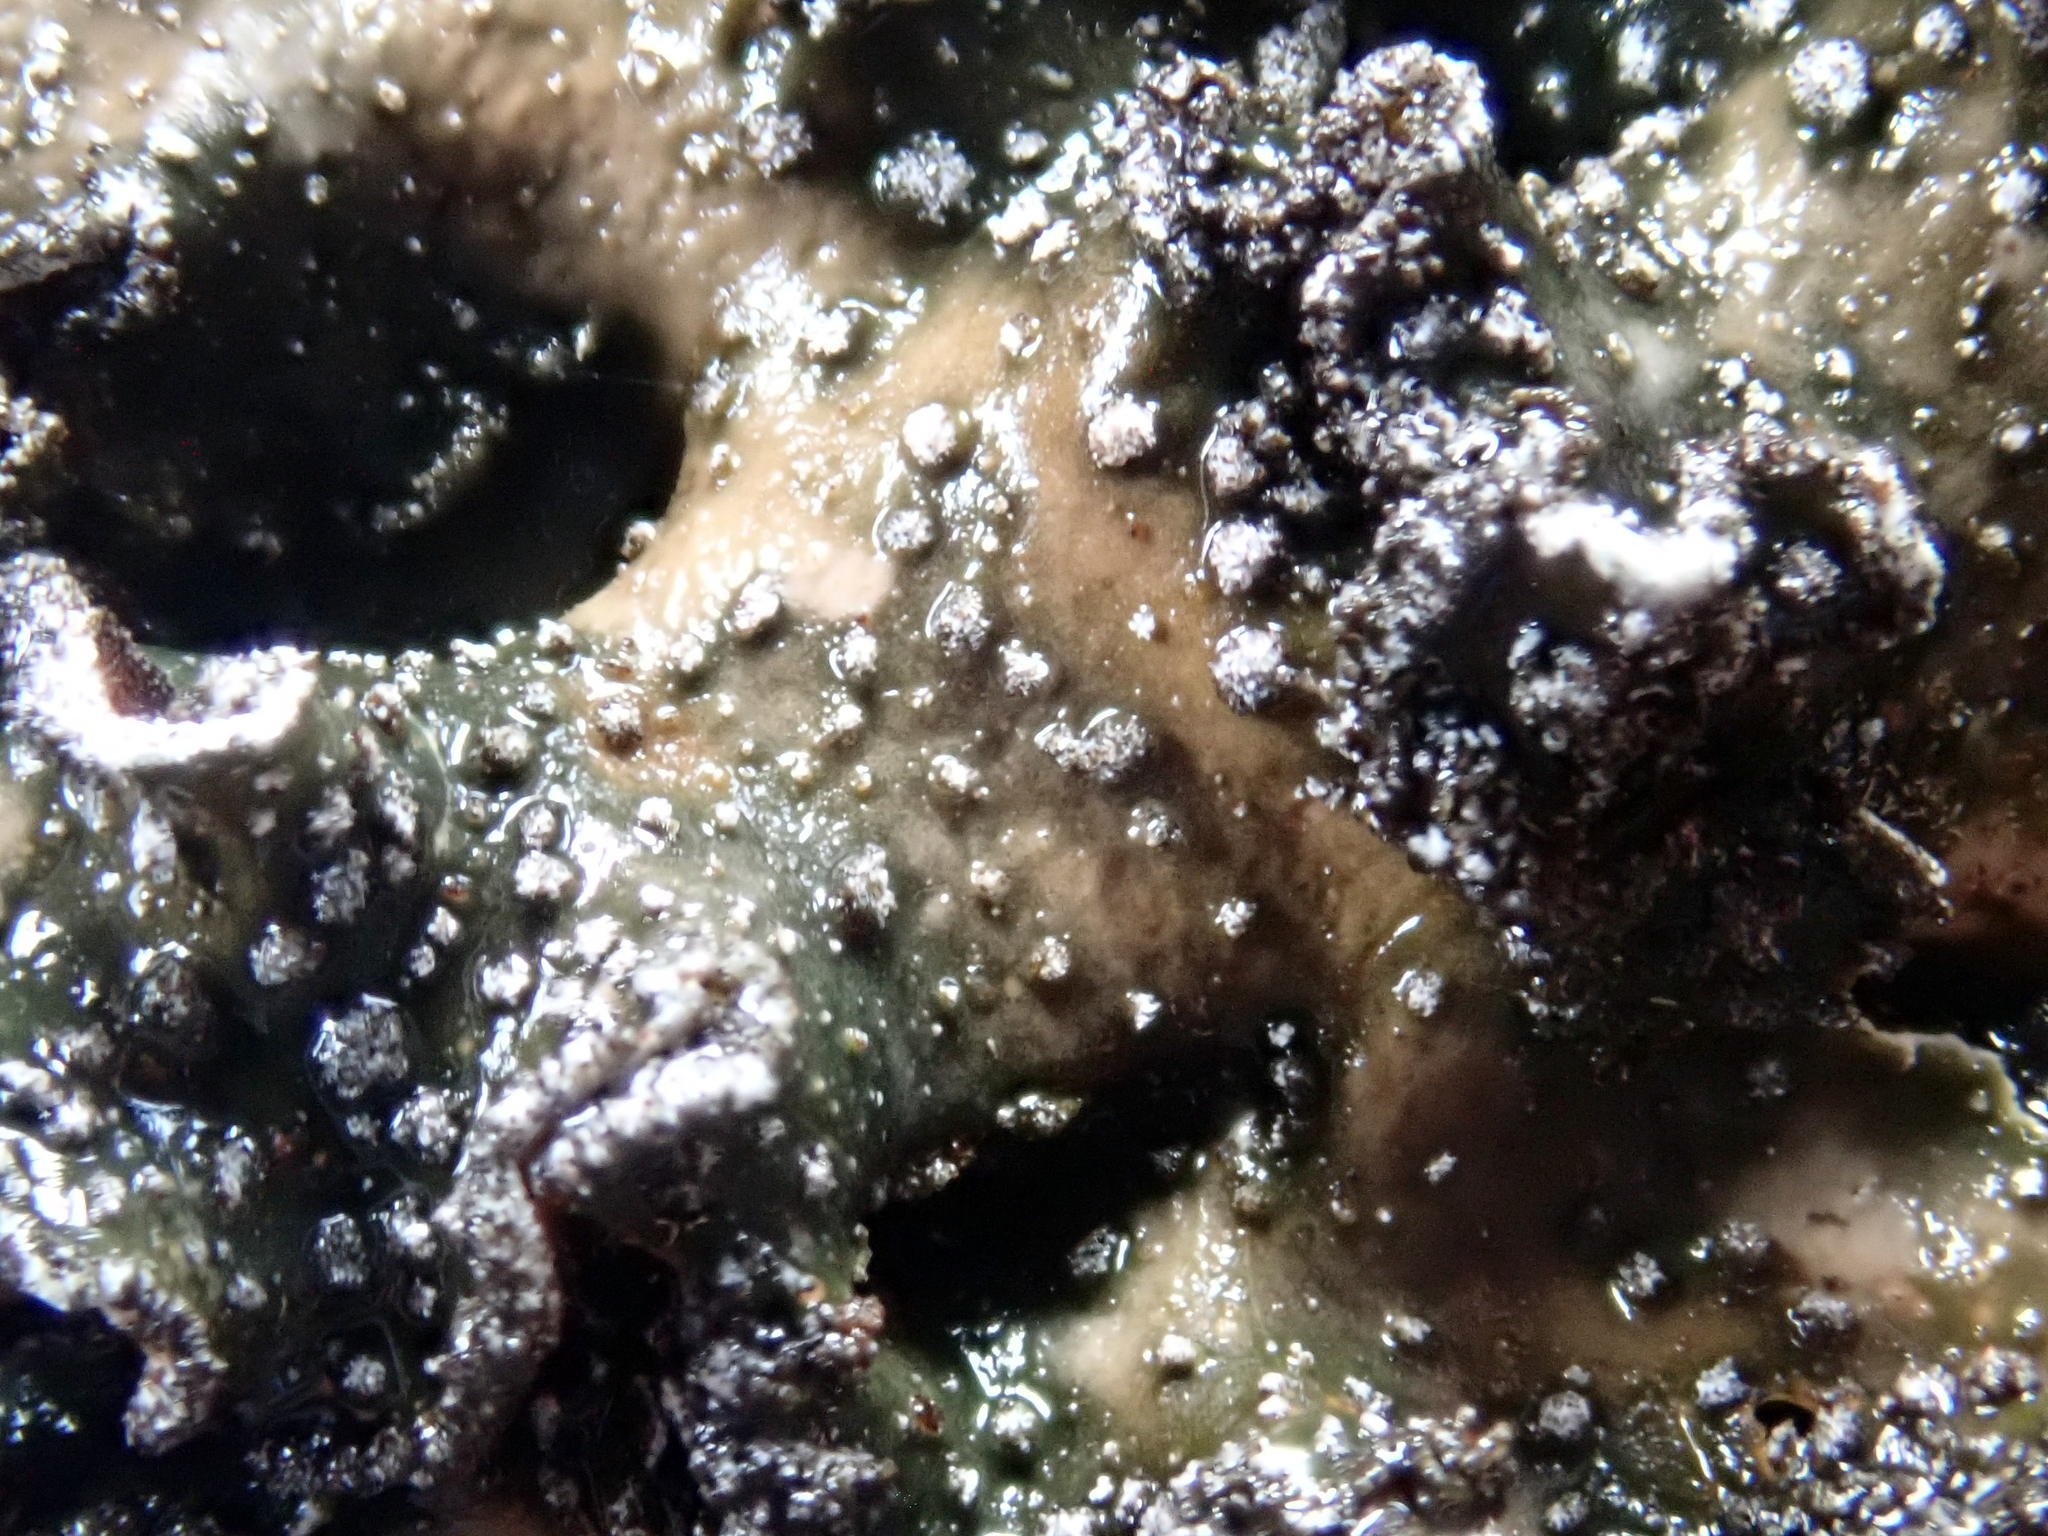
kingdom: Fungi
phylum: Ascomycota
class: Lecanoromycetes
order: Peltigerales
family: Lobariaceae
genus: Pseudocyphellaria
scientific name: Pseudocyphellaria intricata
